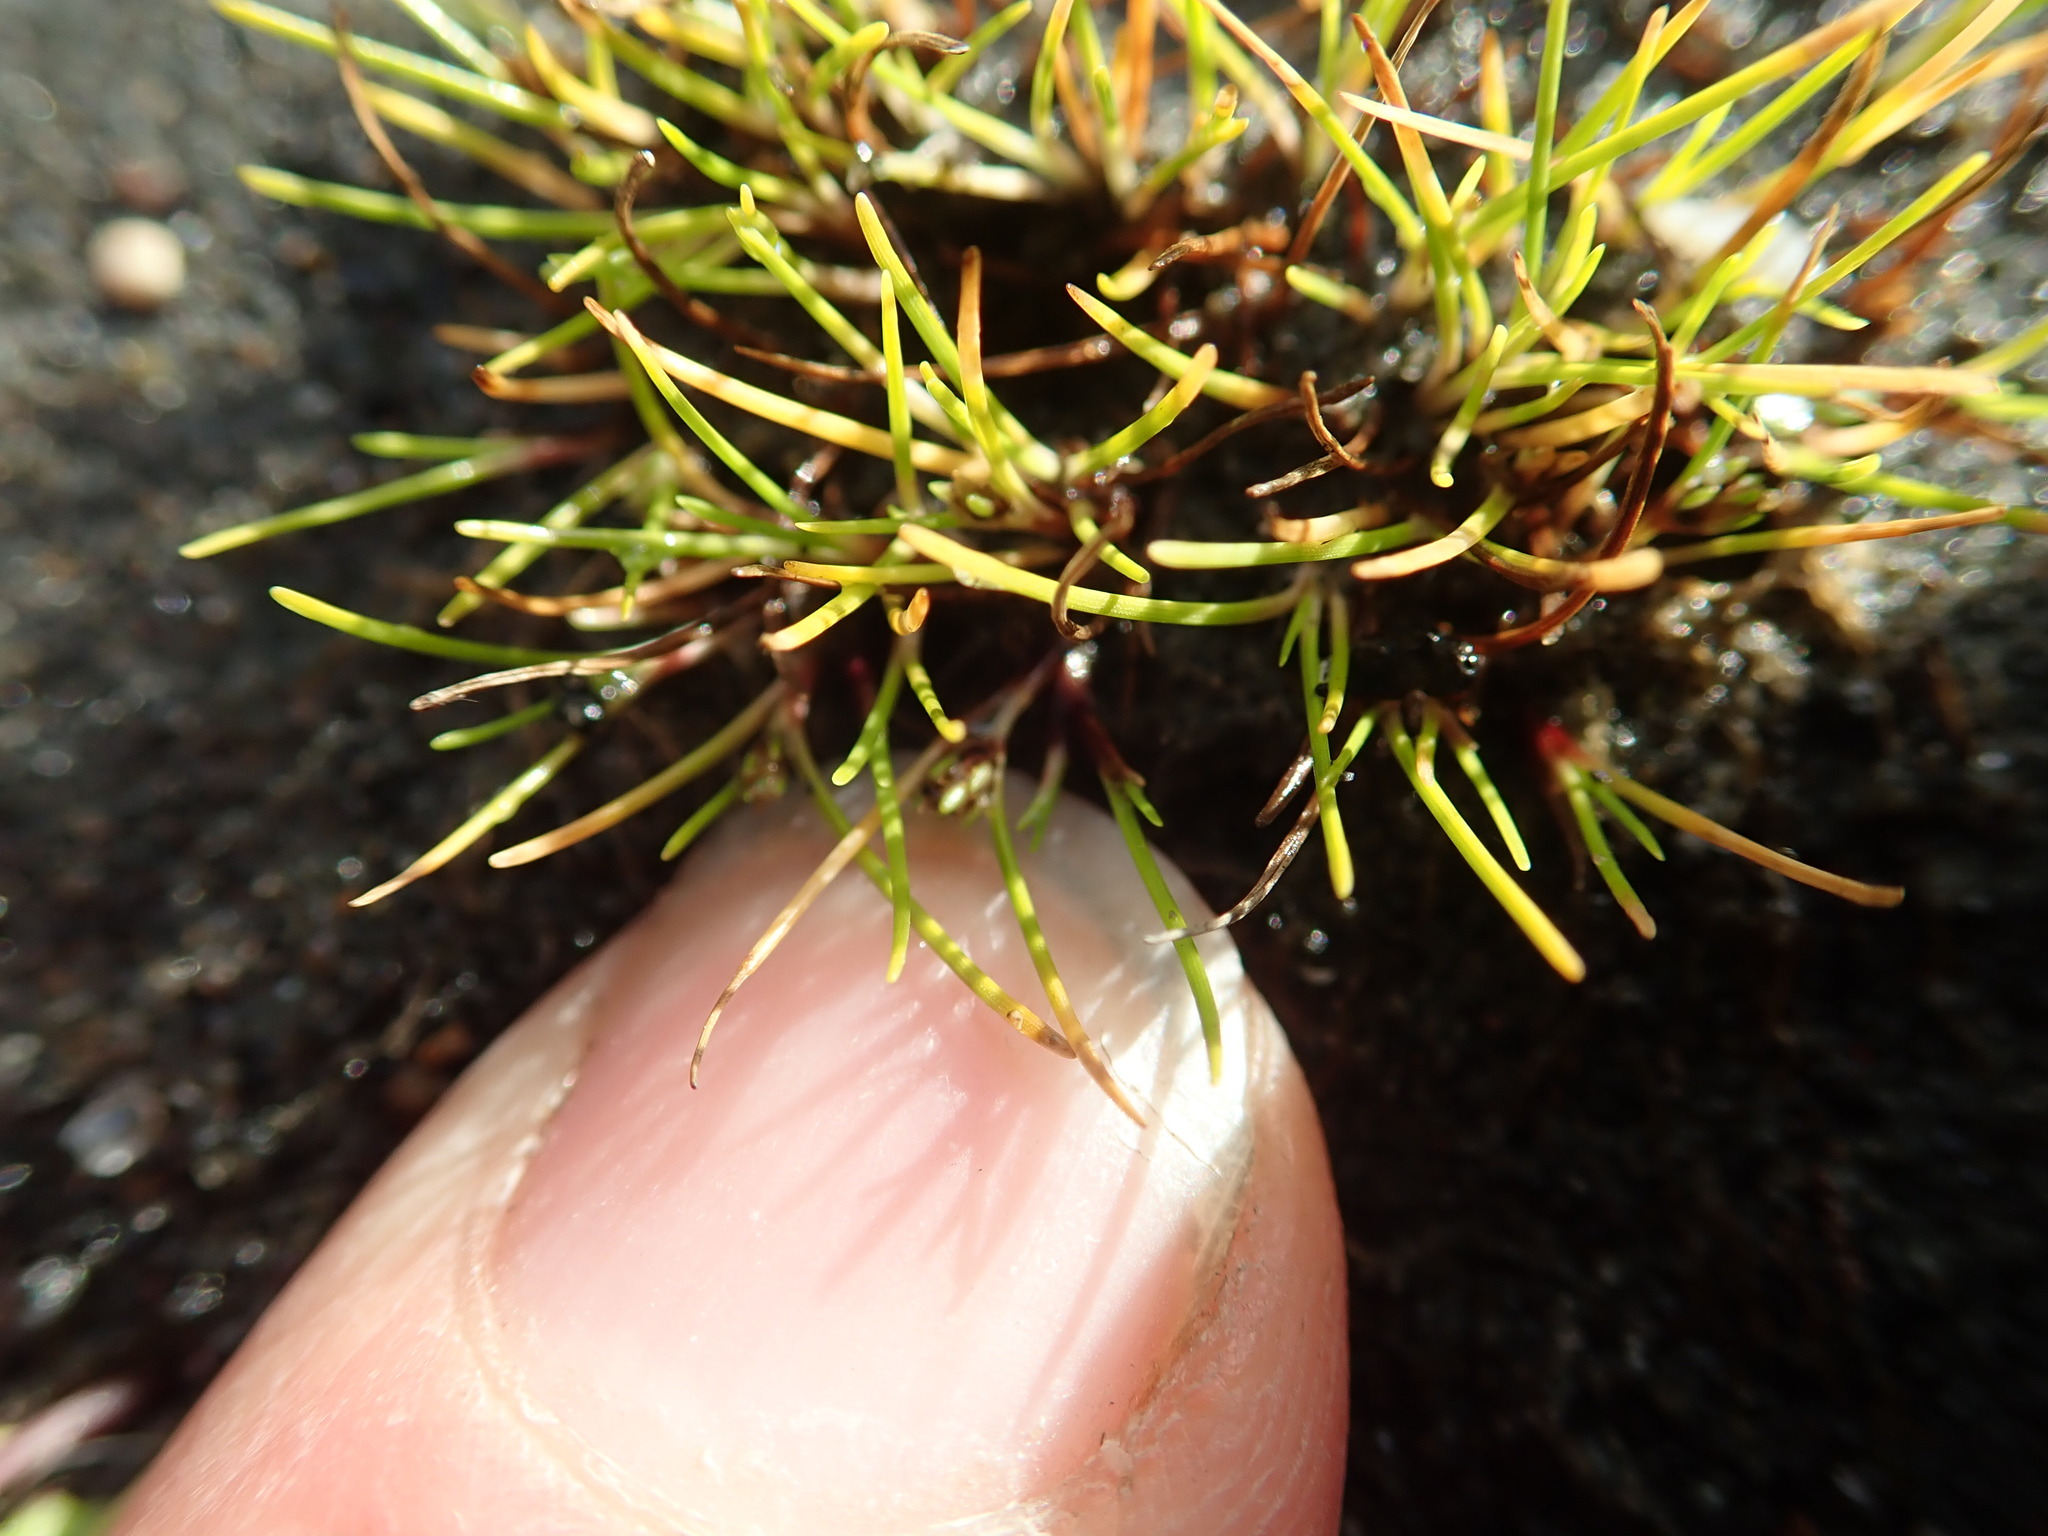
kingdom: Plantae
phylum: Tracheophyta
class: Liliopsida
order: Poales
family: Cyperaceae
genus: Isolepis
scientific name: Isolepis basilaris
